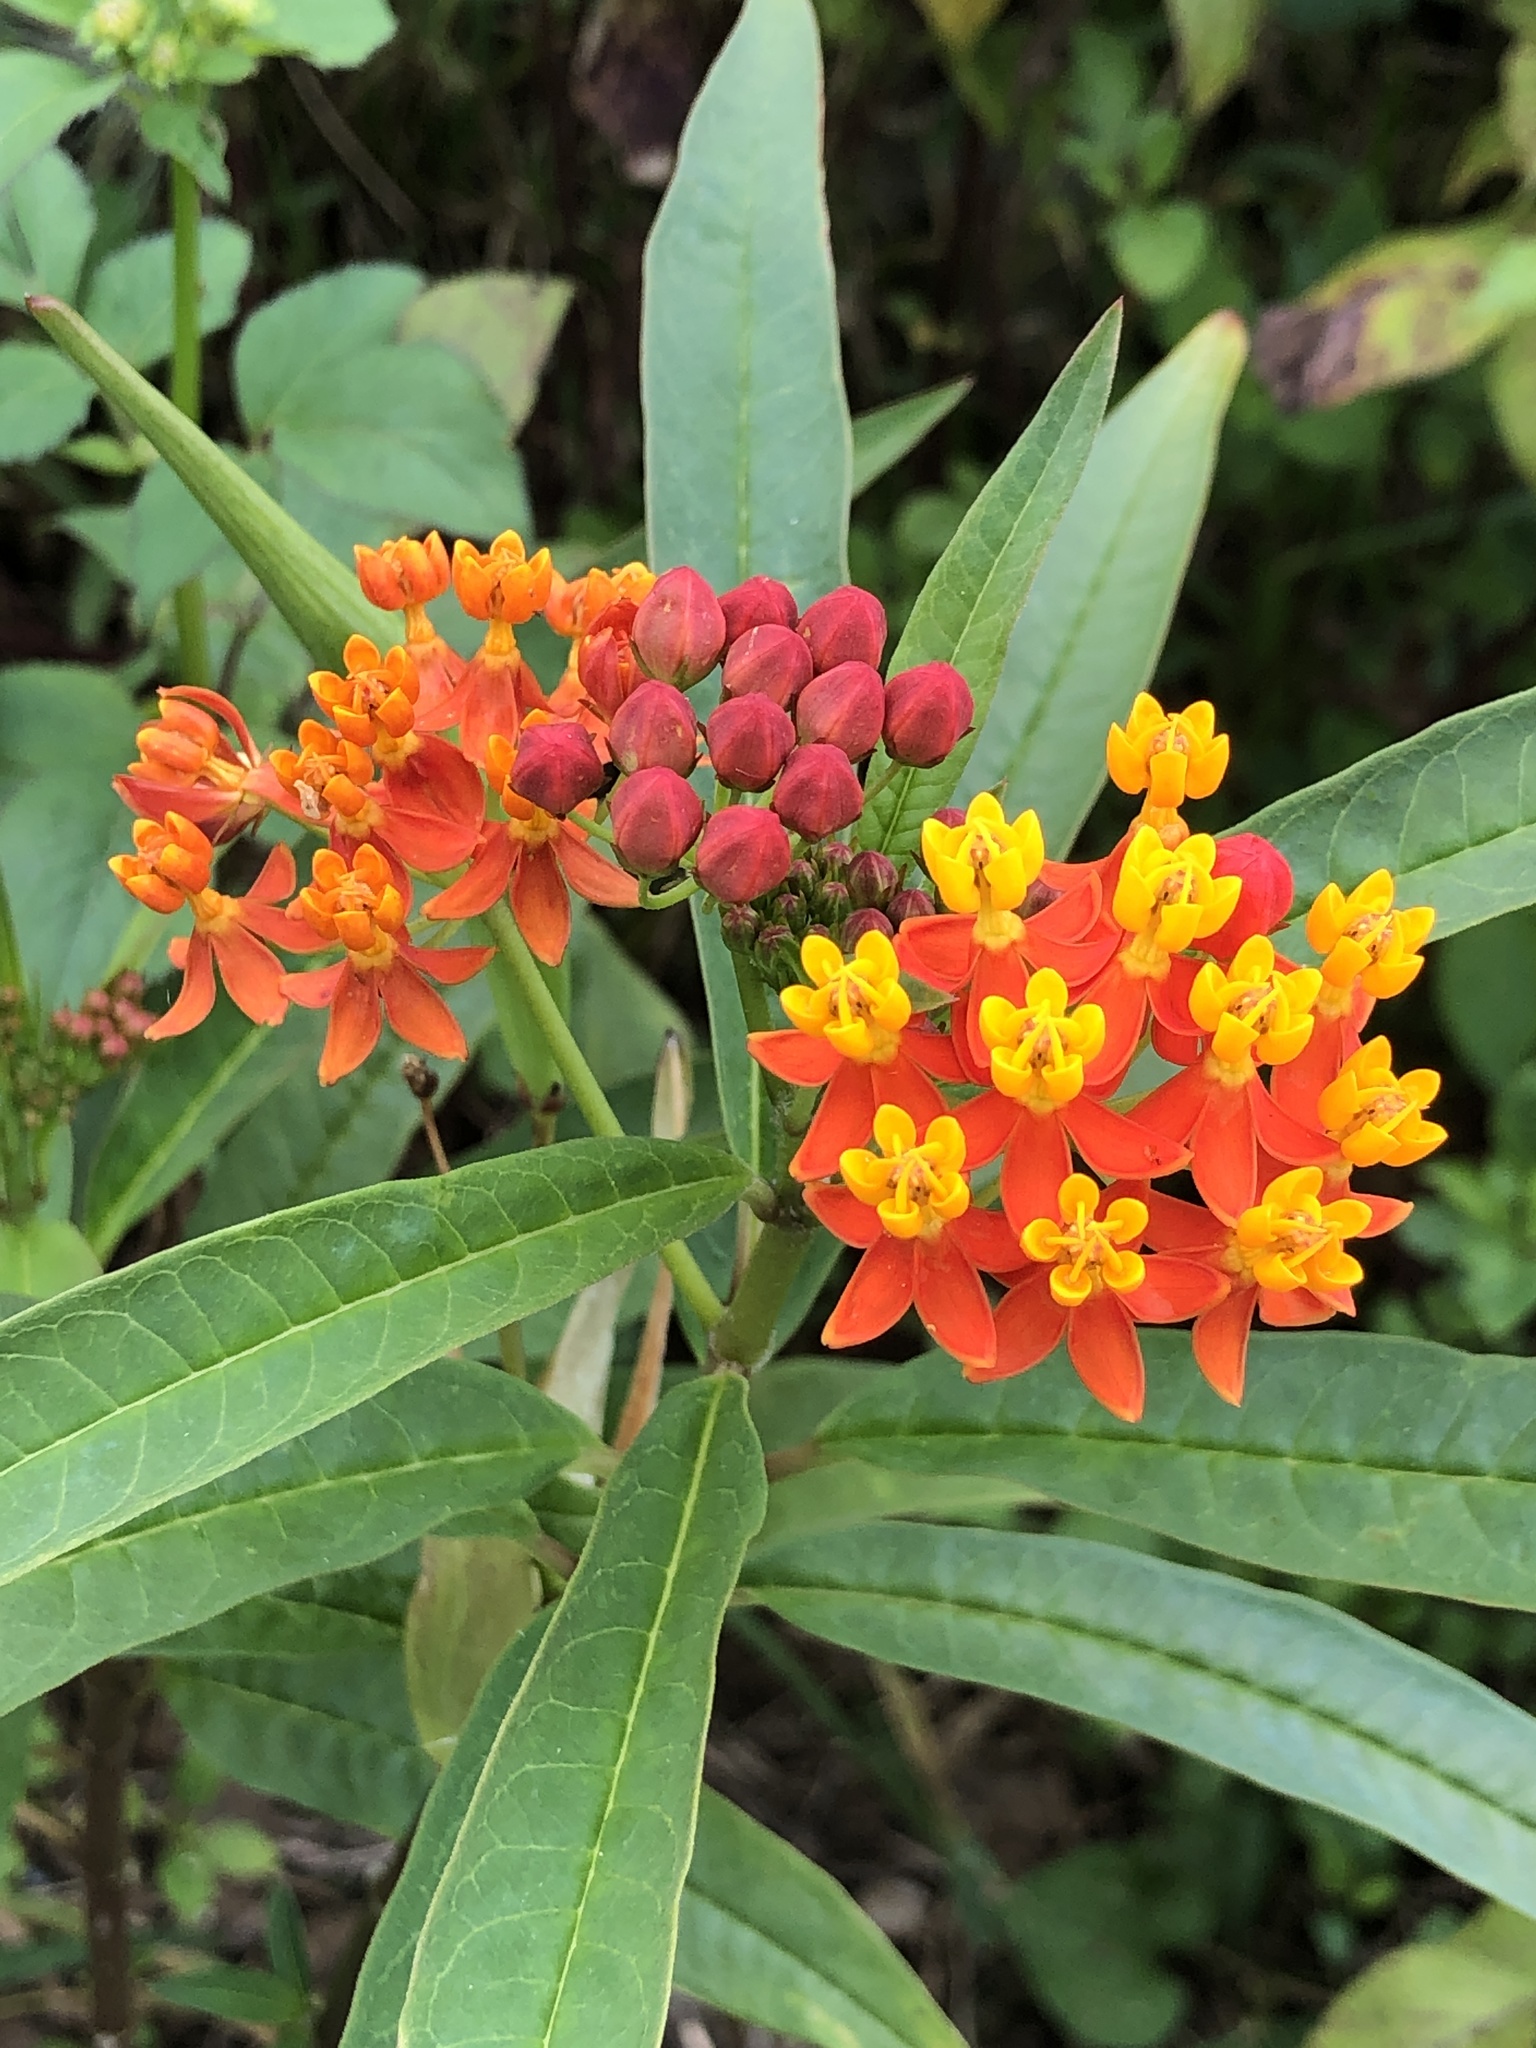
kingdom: Plantae
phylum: Tracheophyta
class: Magnoliopsida
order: Gentianales
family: Apocynaceae
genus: Asclepias
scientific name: Asclepias curassavica
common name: Bloodflower
